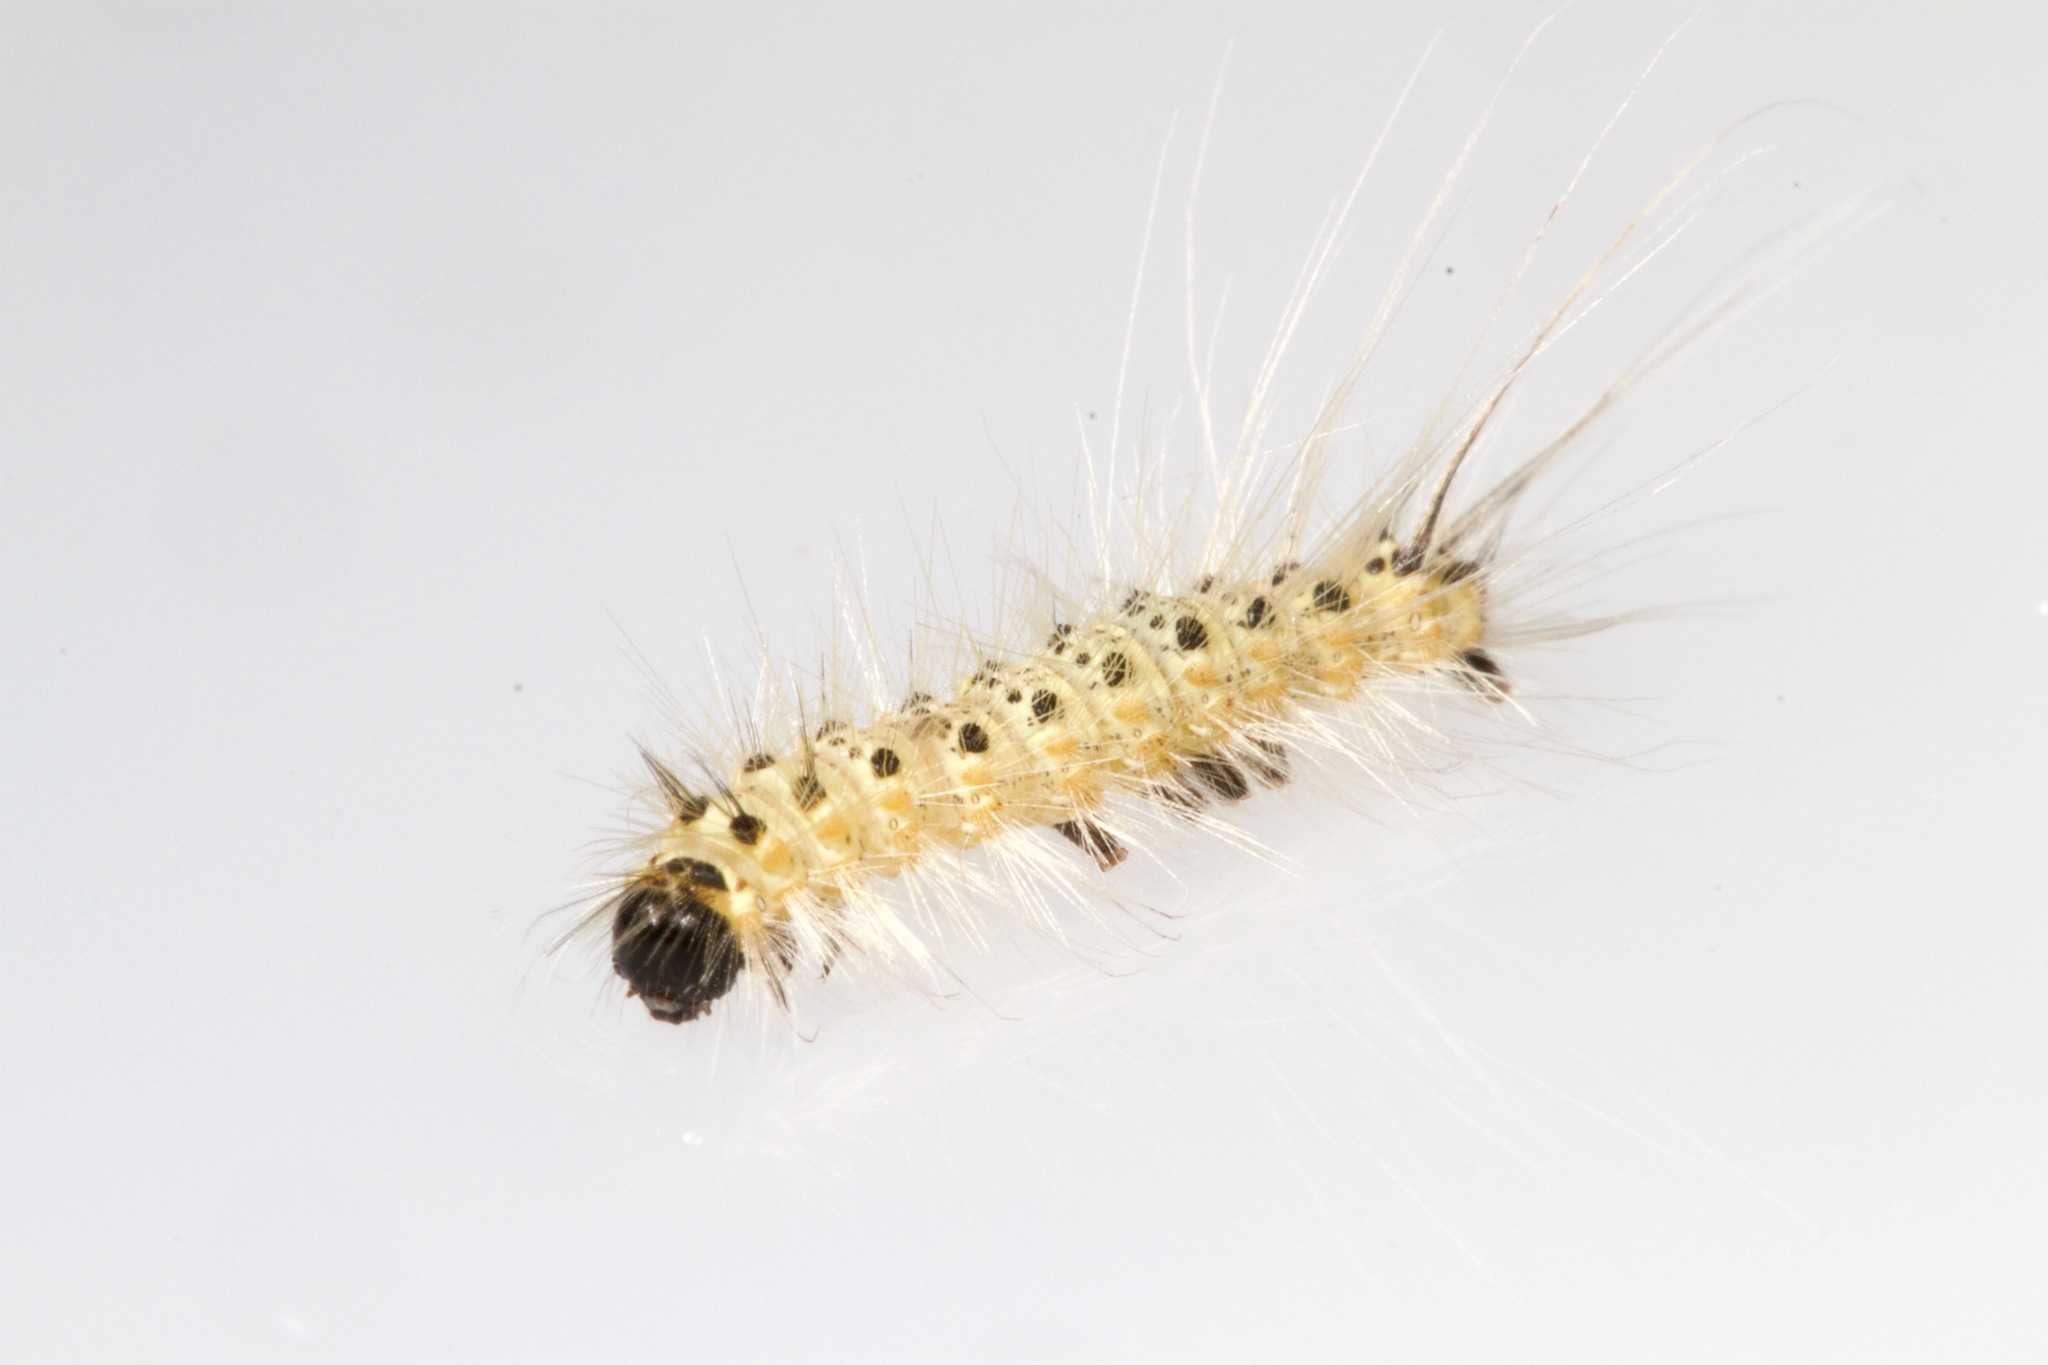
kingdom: Animalia
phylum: Arthropoda
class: Insecta
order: Lepidoptera
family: Erebidae
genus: Hyphantria
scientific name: Hyphantria cunea
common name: American white moth
